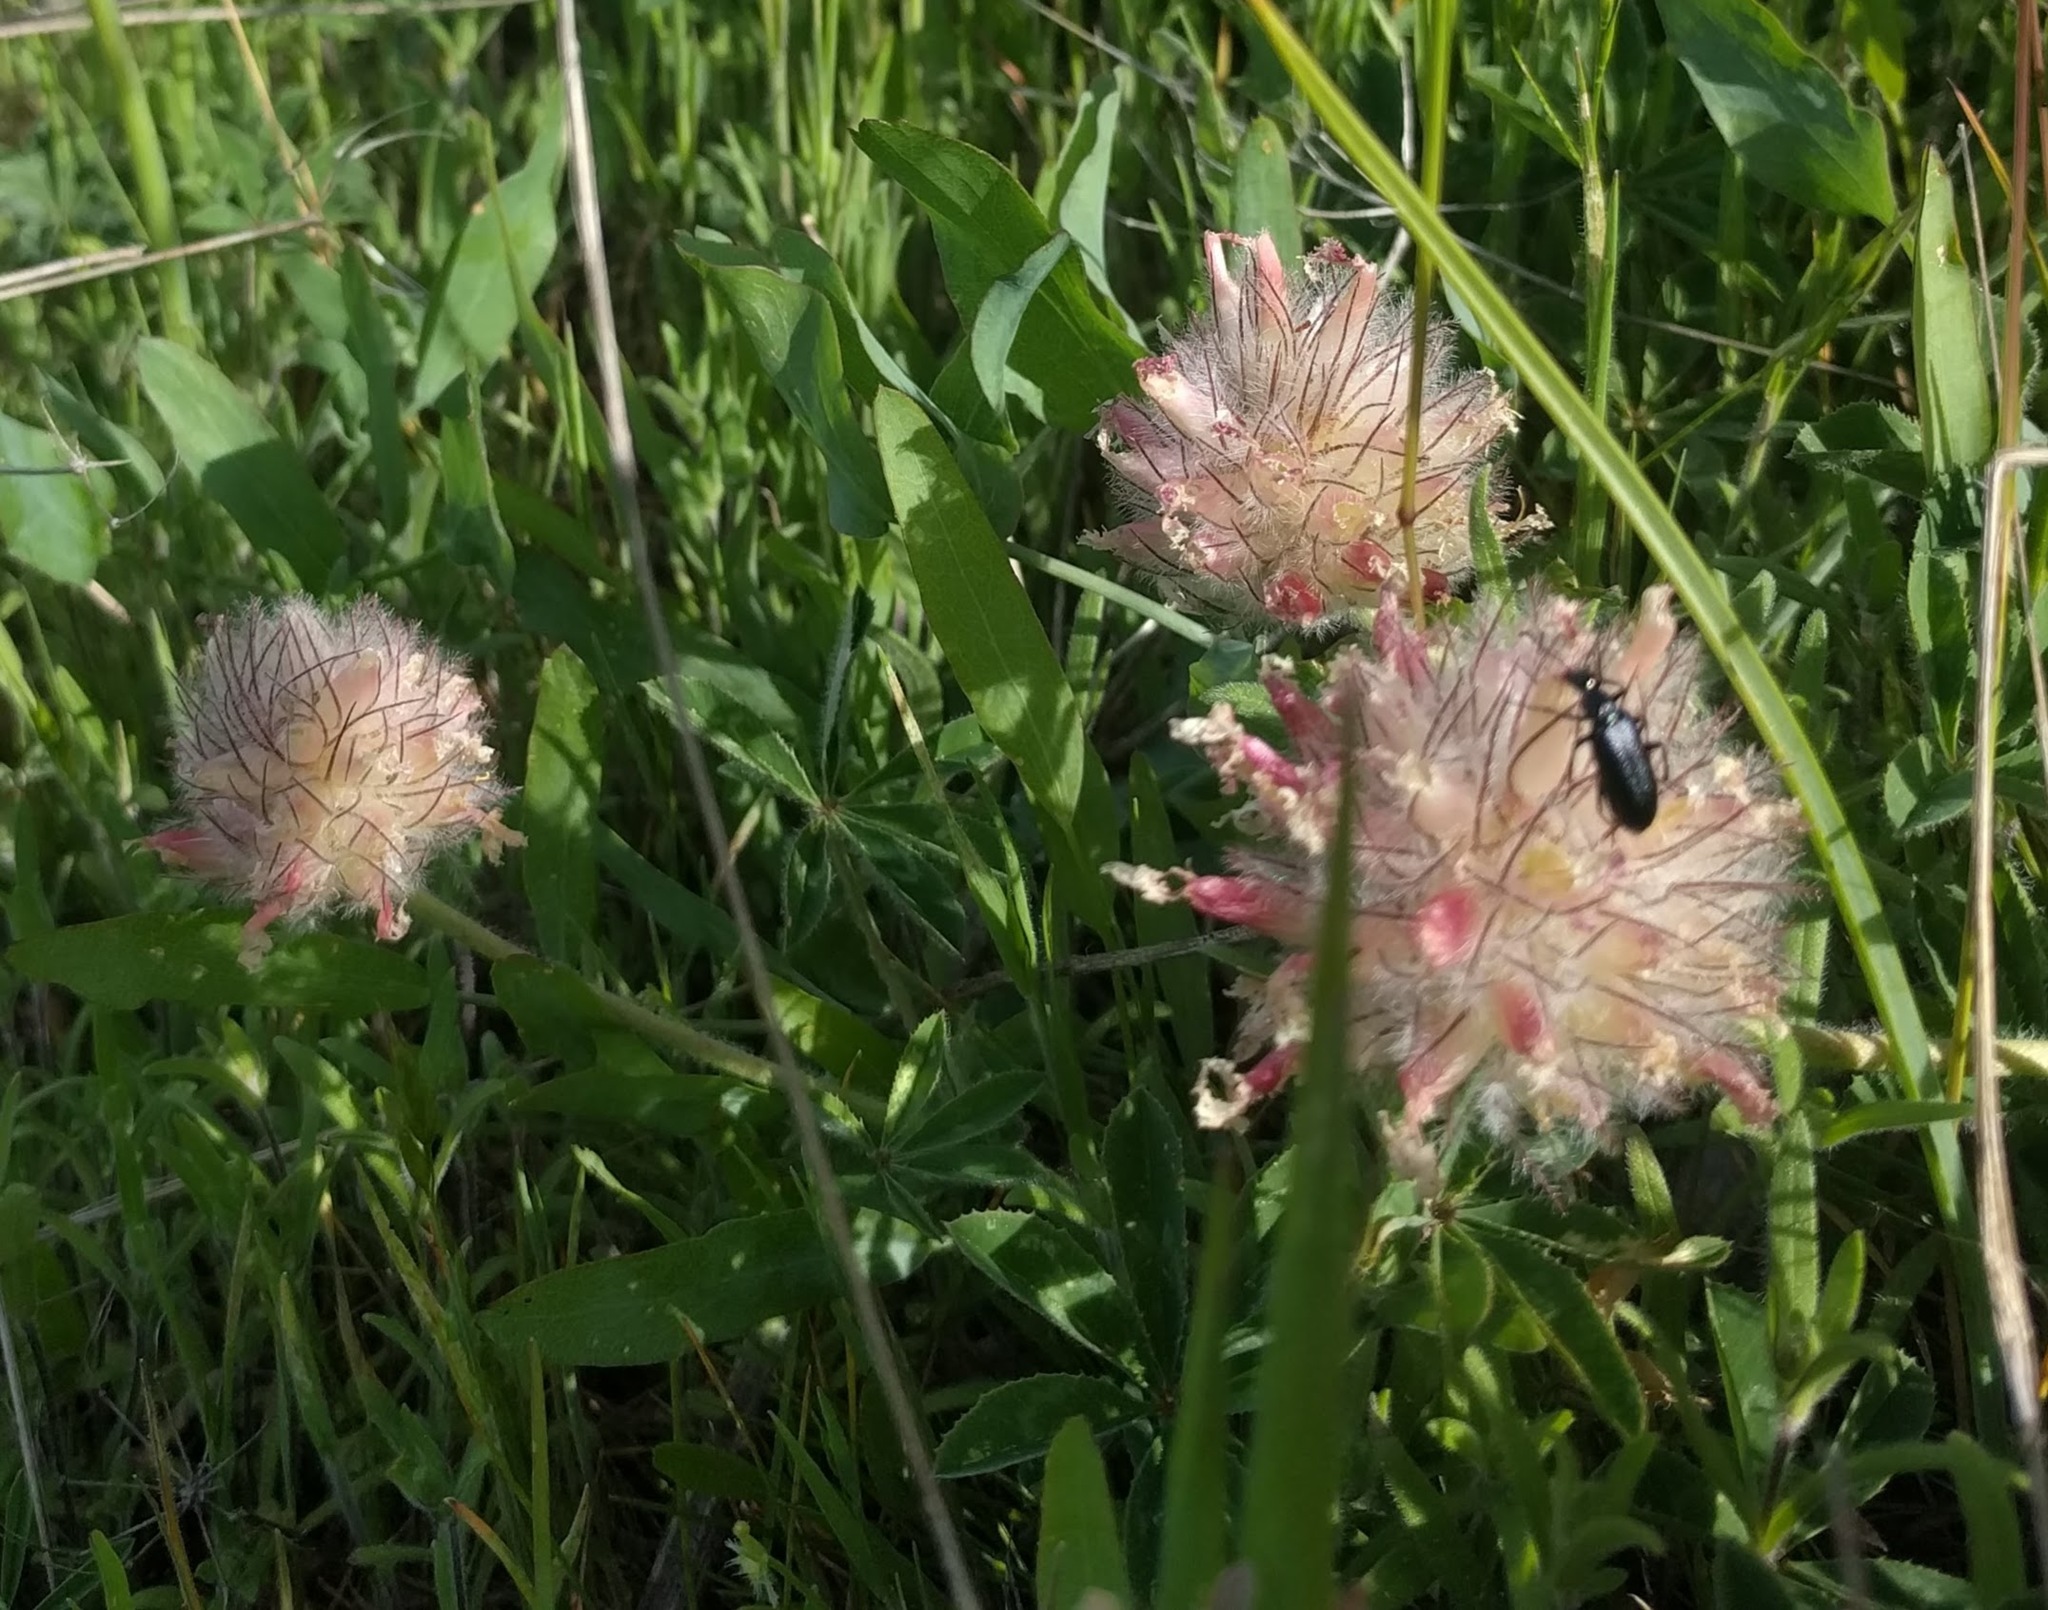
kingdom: Plantae
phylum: Tracheophyta
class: Magnoliopsida
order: Fabales
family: Fabaceae
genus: Trifolium
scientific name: Trifolium macrocephalum
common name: Large-head clover
